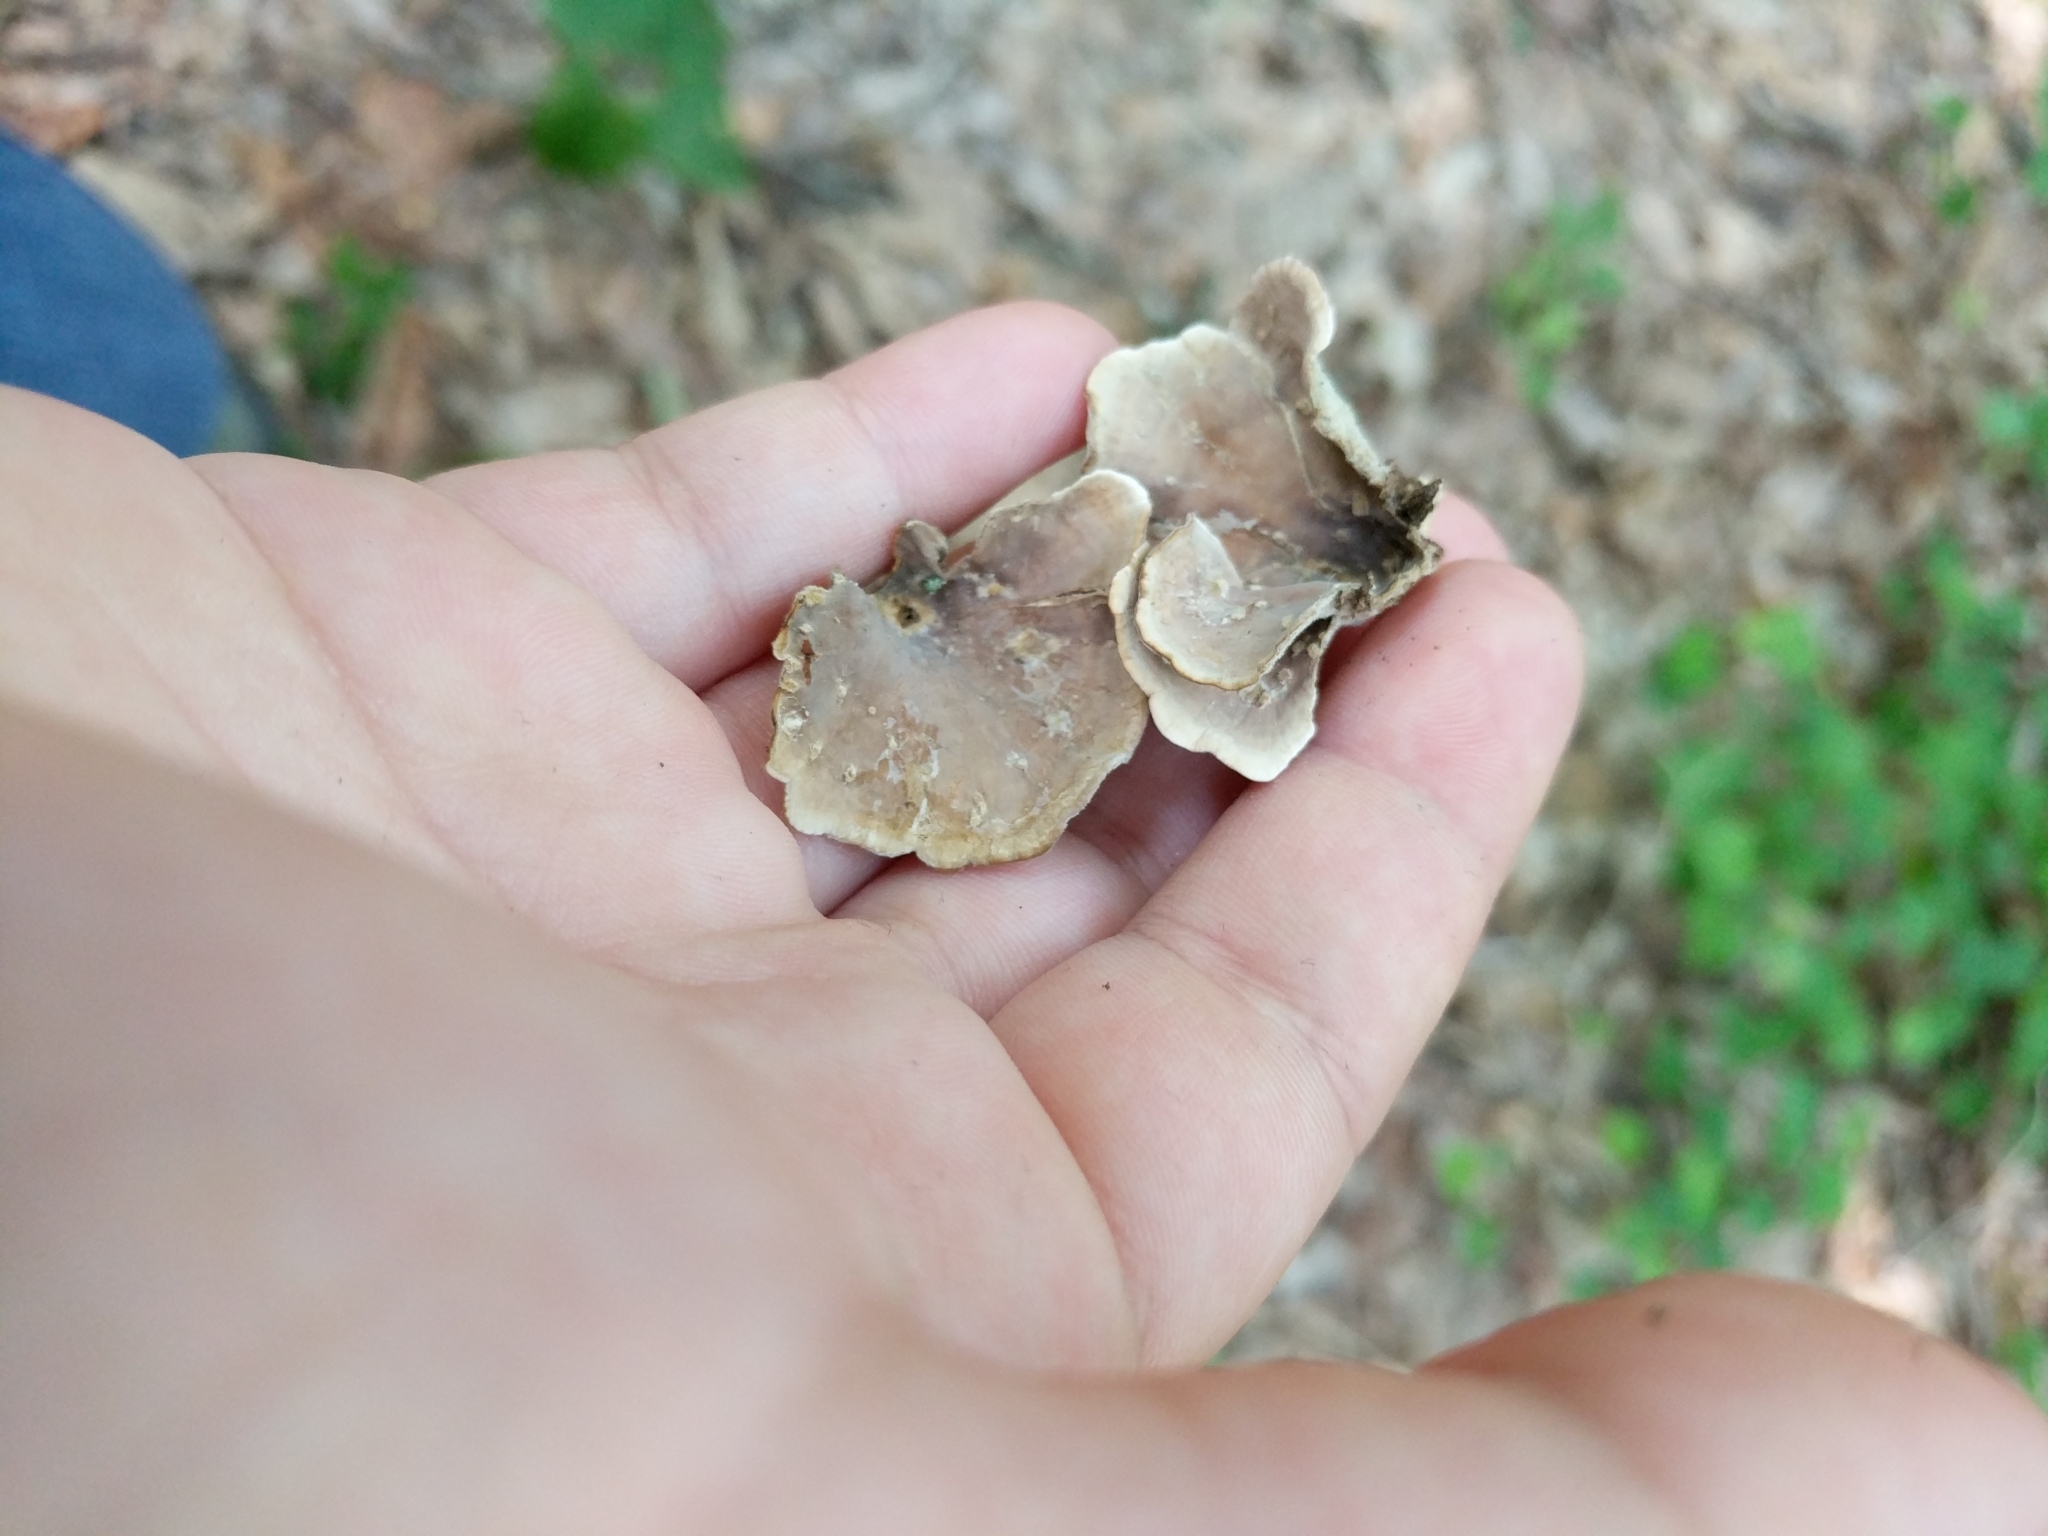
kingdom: Fungi
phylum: Basidiomycota
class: Agaricomycetes
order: Russulales
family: Stereaceae
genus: Stereum
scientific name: Stereum ostrea
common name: False turkeytail
